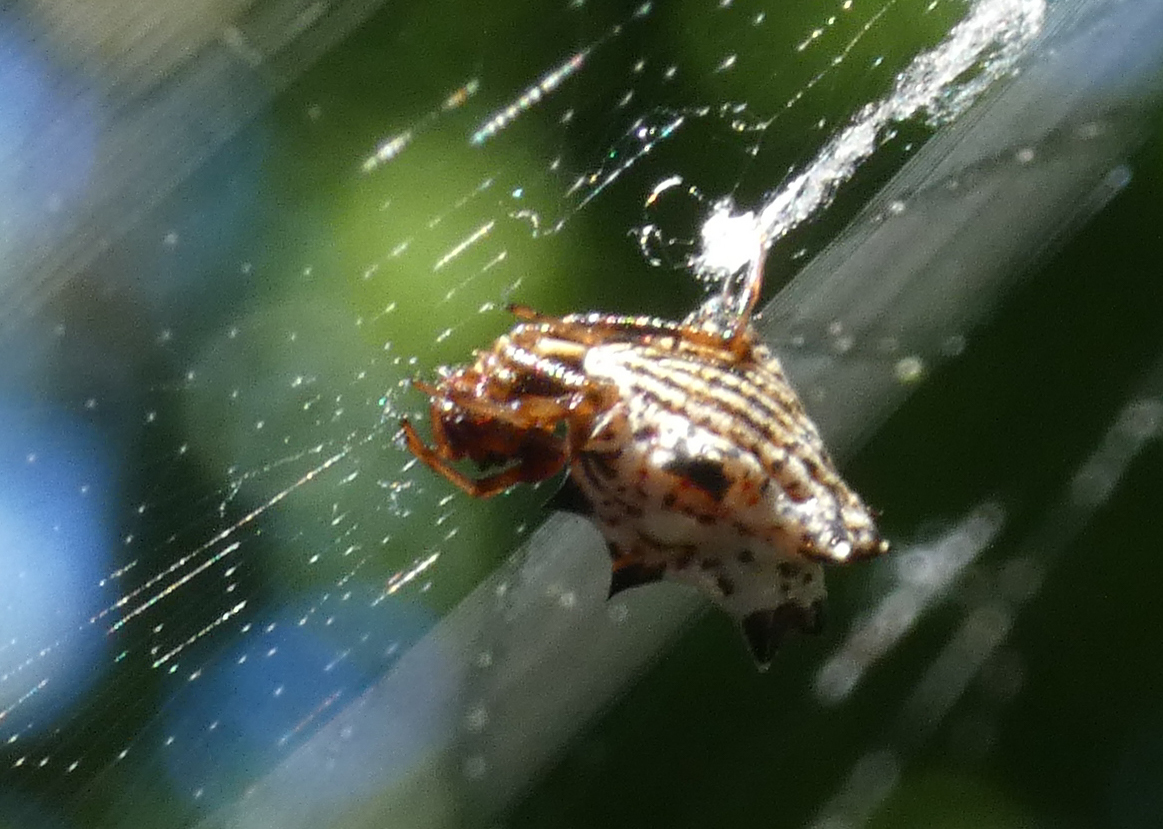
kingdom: Animalia
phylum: Arthropoda
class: Arachnida
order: Araneae
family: Araneidae
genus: Micrathena
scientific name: Micrathena gracilis
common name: Orb weavers
